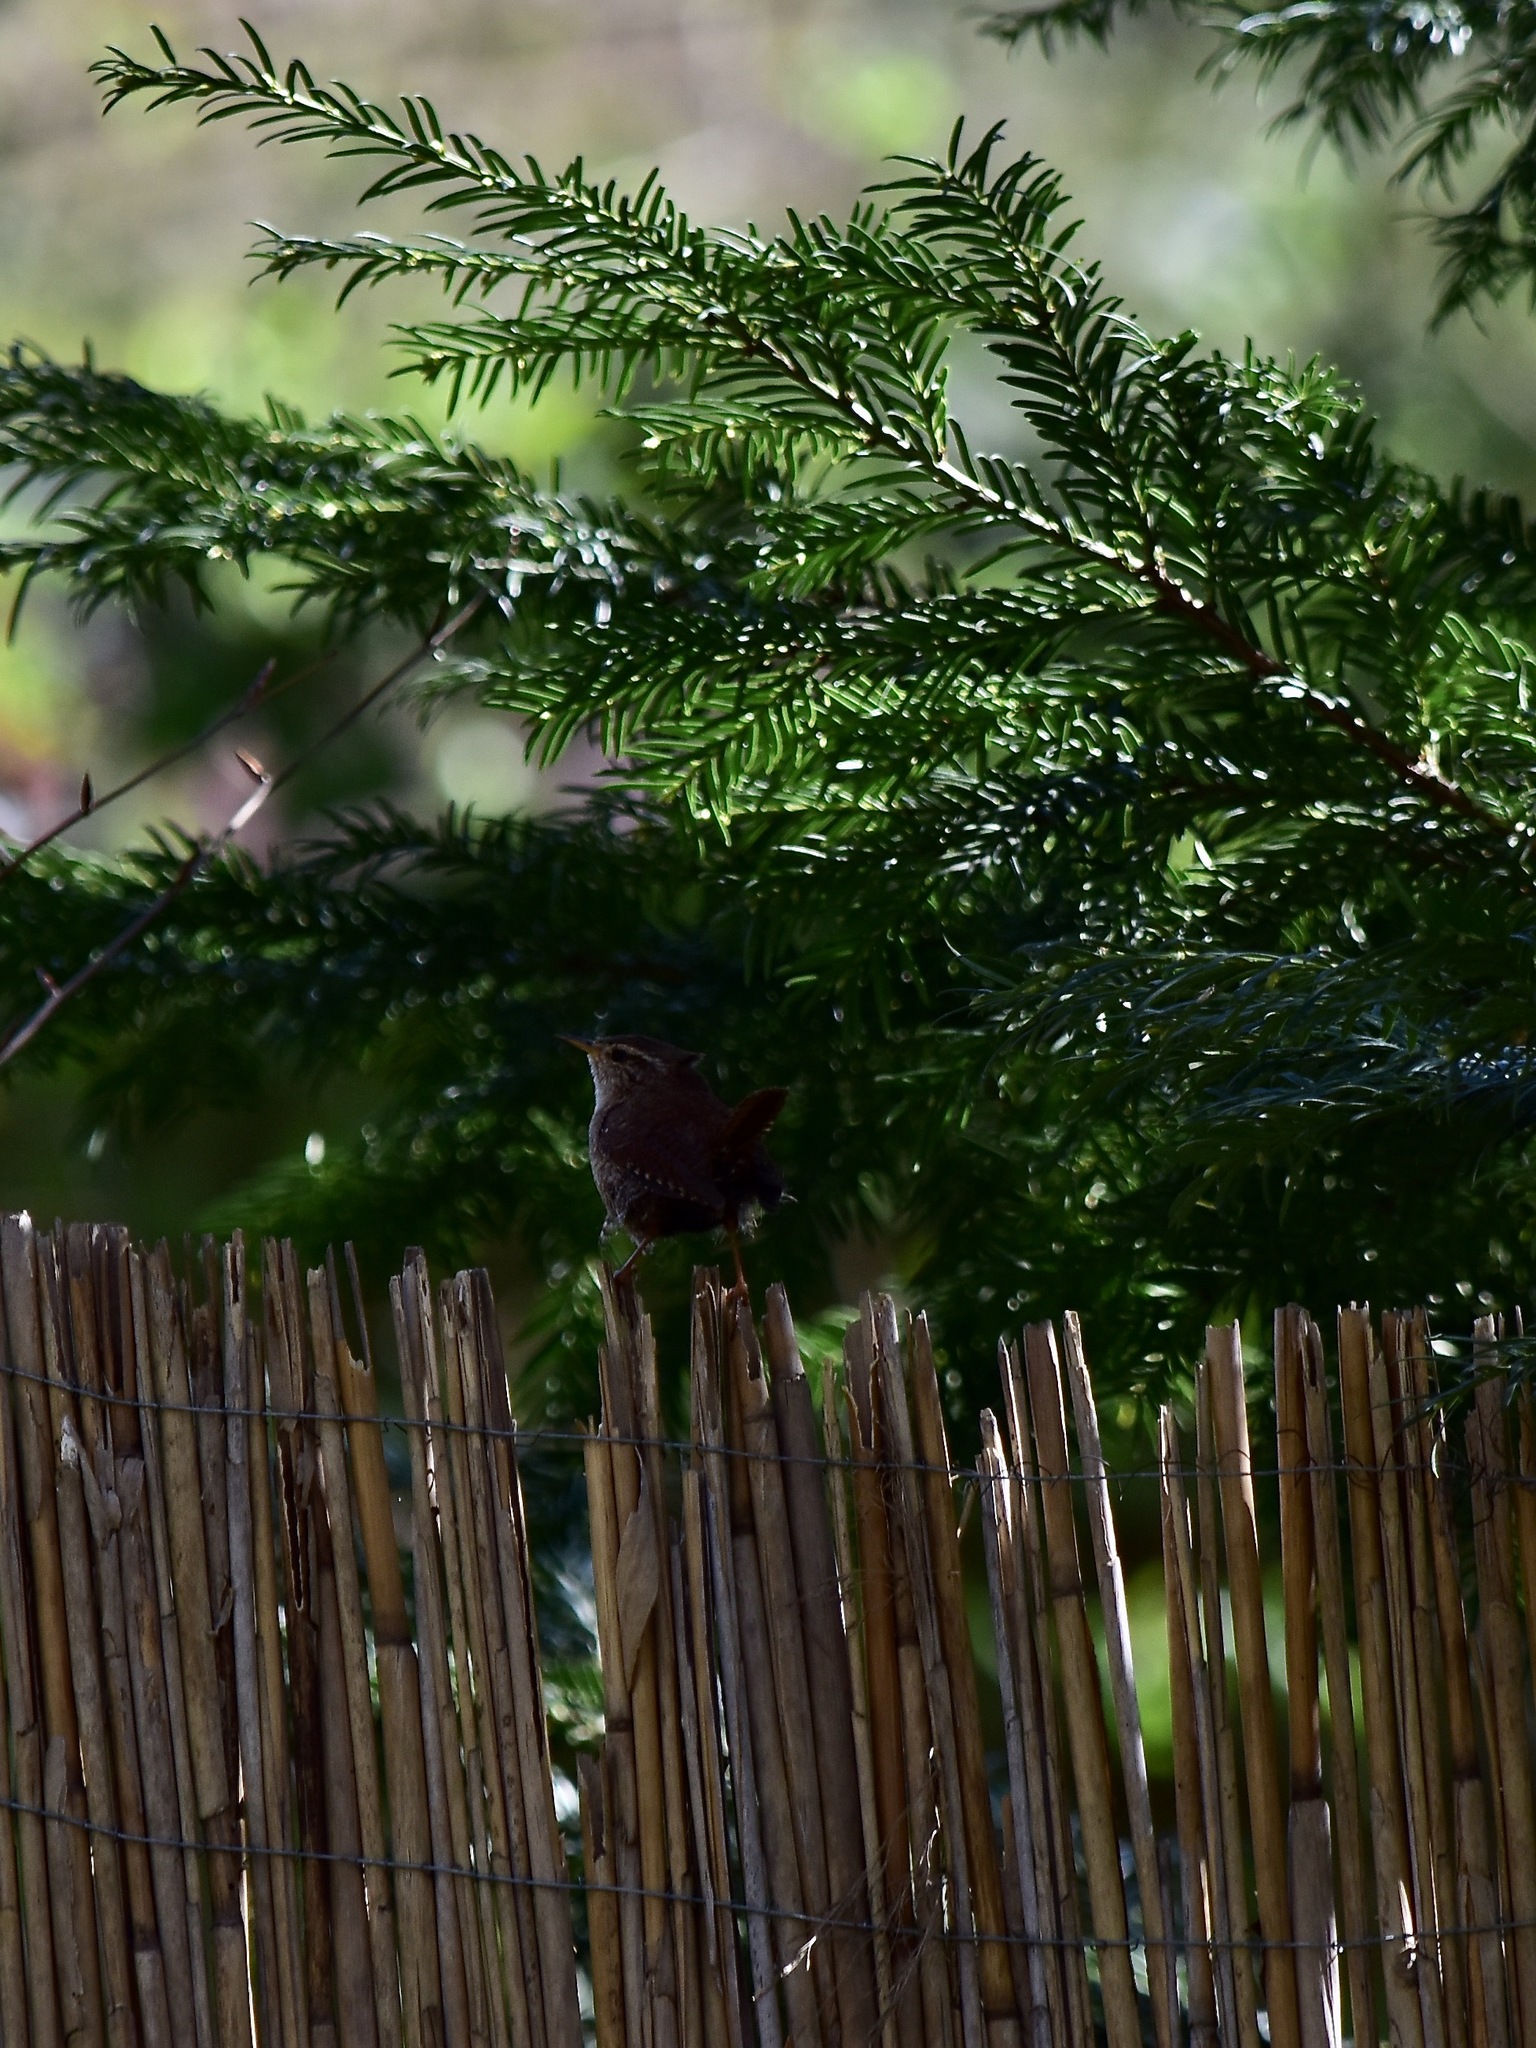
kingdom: Animalia
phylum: Chordata
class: Aves
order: Passeriformes
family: Troglodytidae
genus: Troglodytes
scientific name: Troglodytes troglodytes
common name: Eurasian wren
